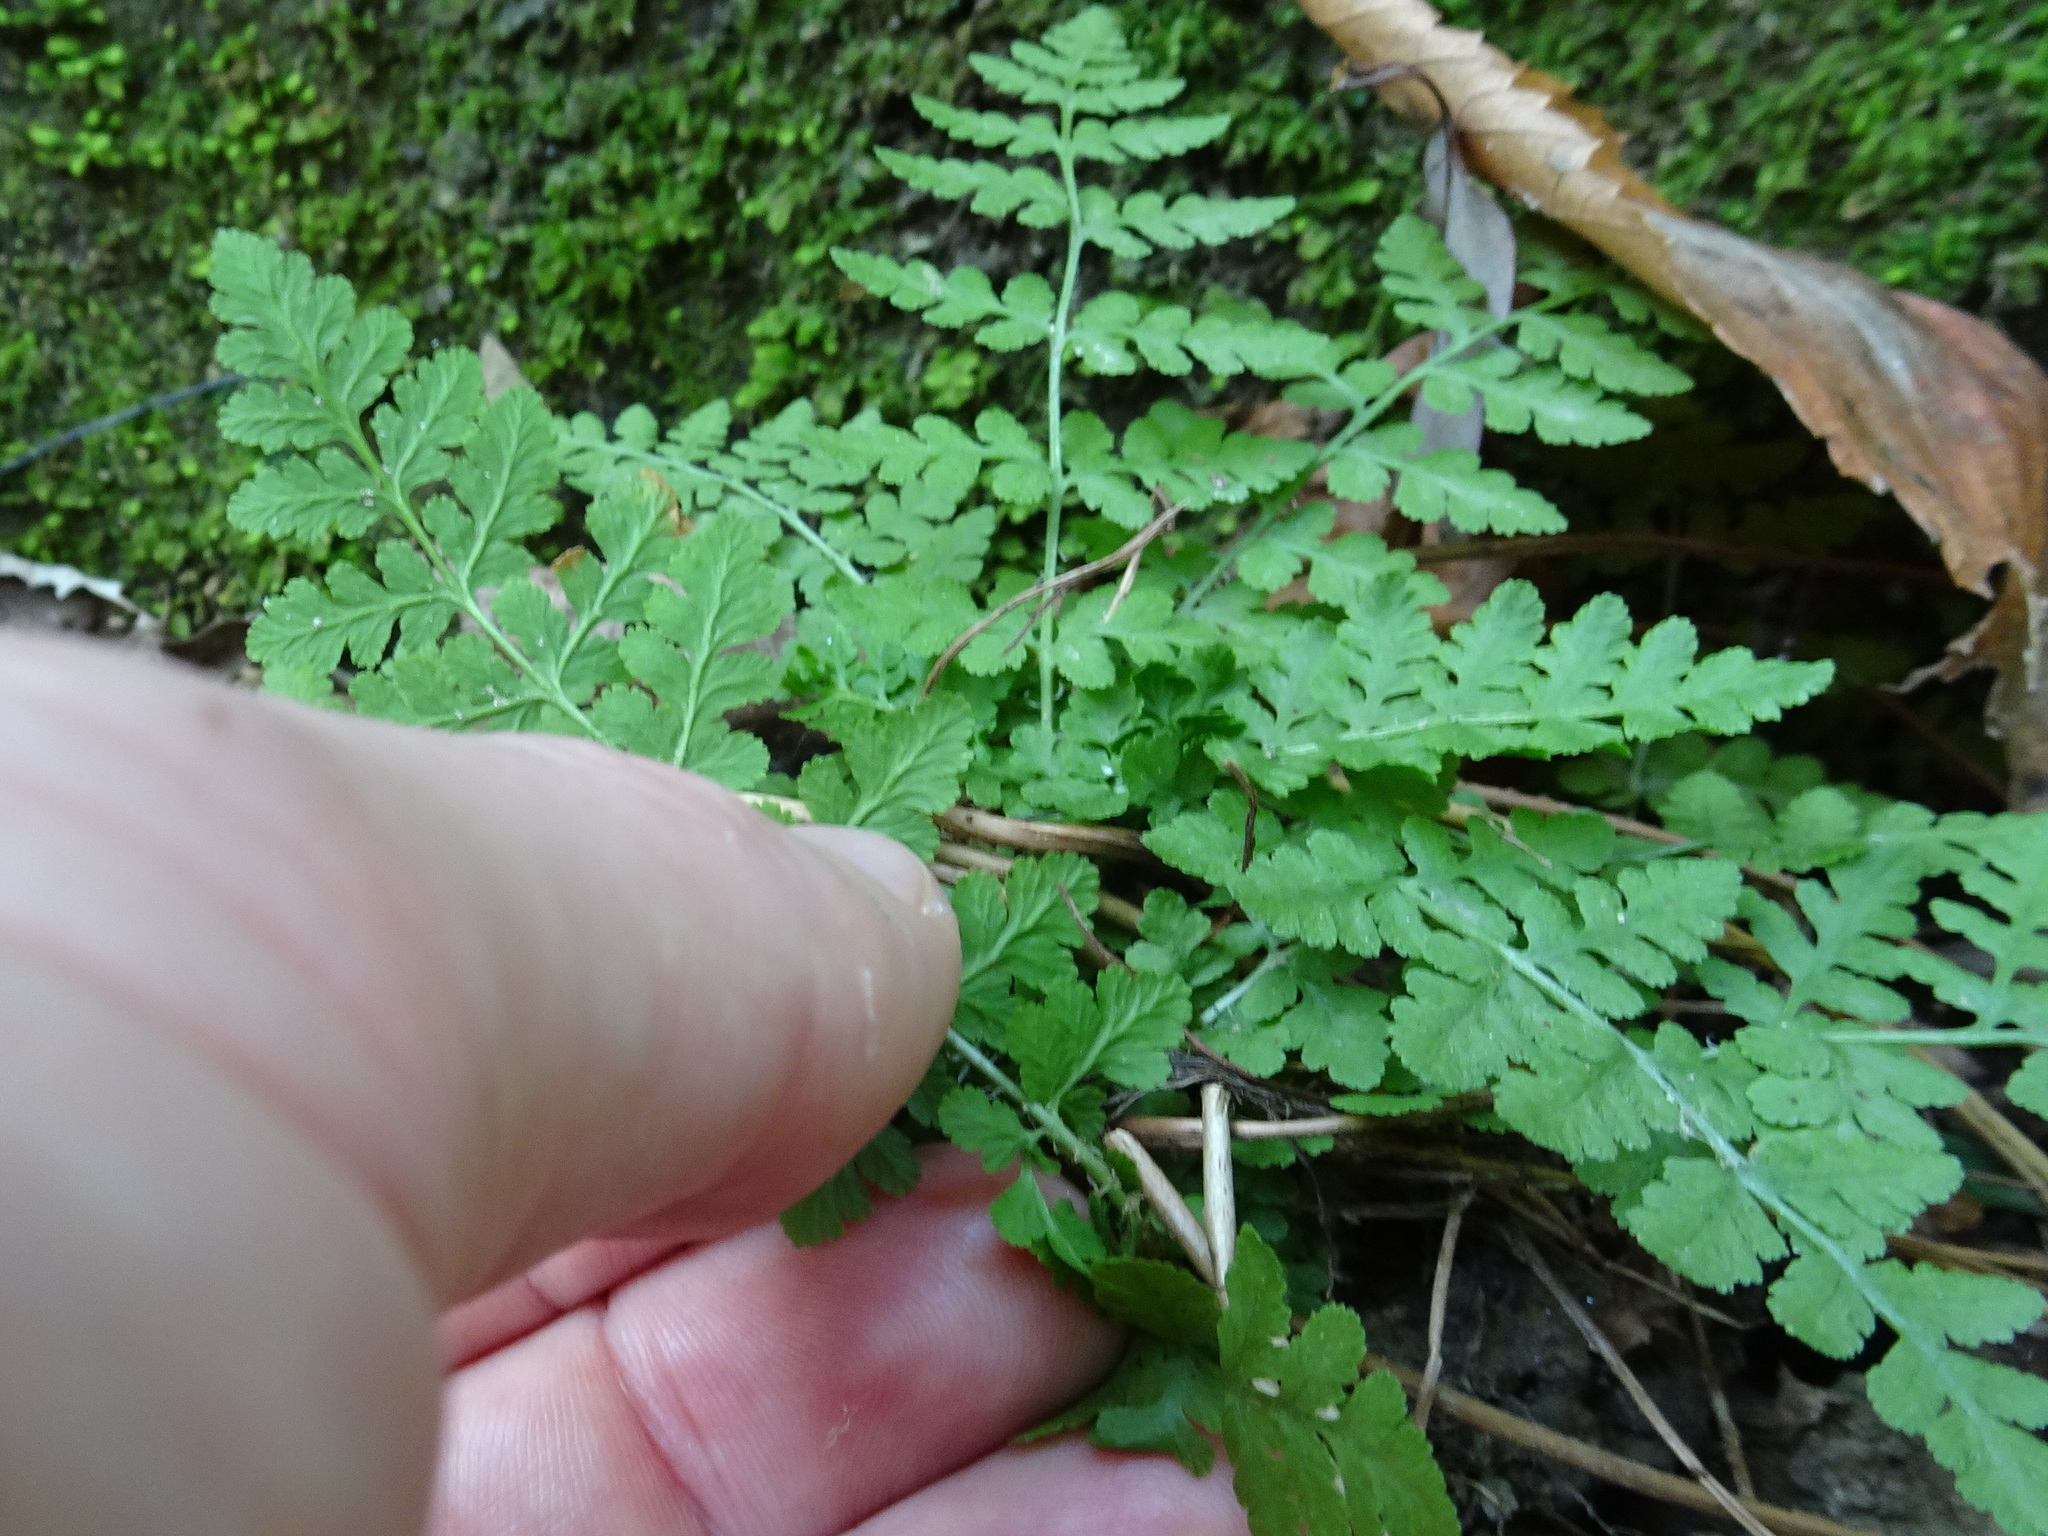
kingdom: Plantae
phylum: Tracheophyta
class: Polypodiopsida
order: Polypodiales
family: Woodsiaceae
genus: Physematium
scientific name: Physematium obtusum
